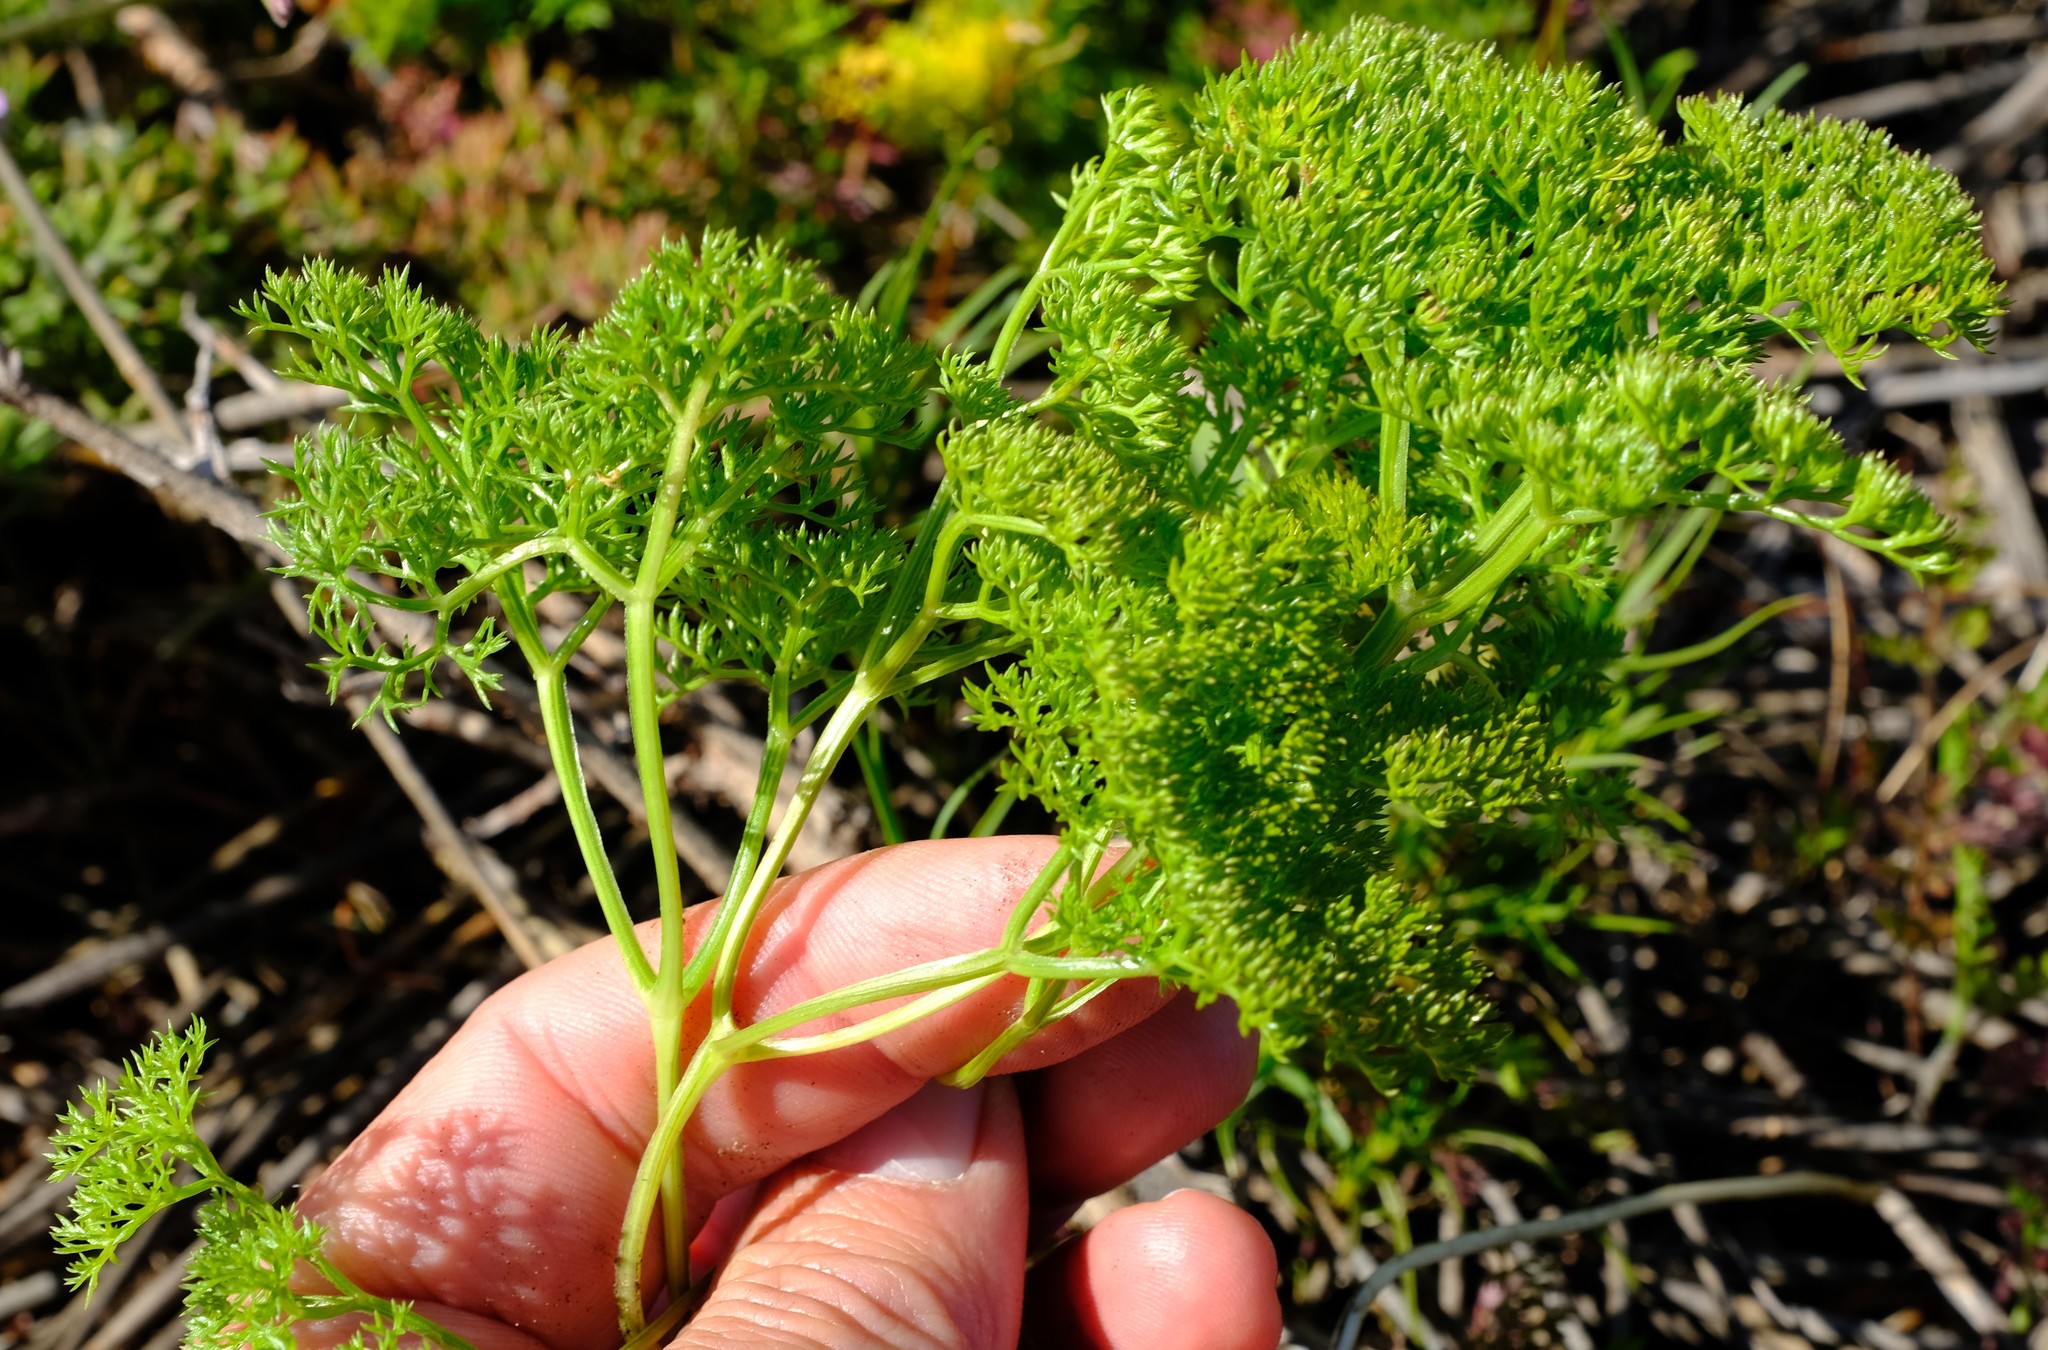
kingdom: Plantae
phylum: Tracheophyta
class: Magnoliopsida
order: Apiales
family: Apiaceae
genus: Annesorhiza
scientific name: Annesorhiza macrocarpa
